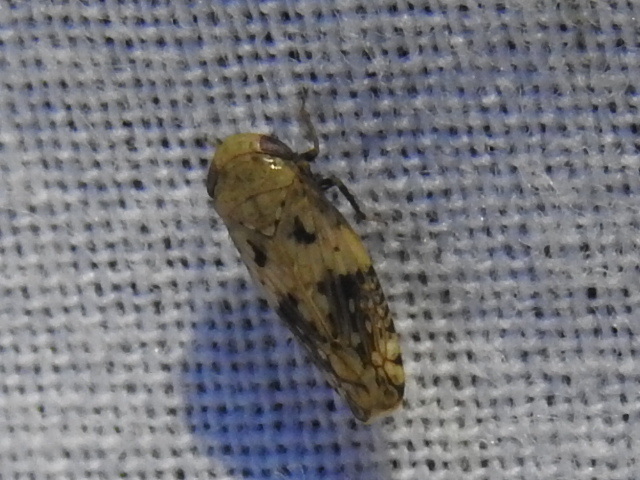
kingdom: Animalia
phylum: Arthropoda
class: Insecta
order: Hemiptera
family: Cicadellidae
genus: Menosoma
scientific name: Menosoma cinctum
